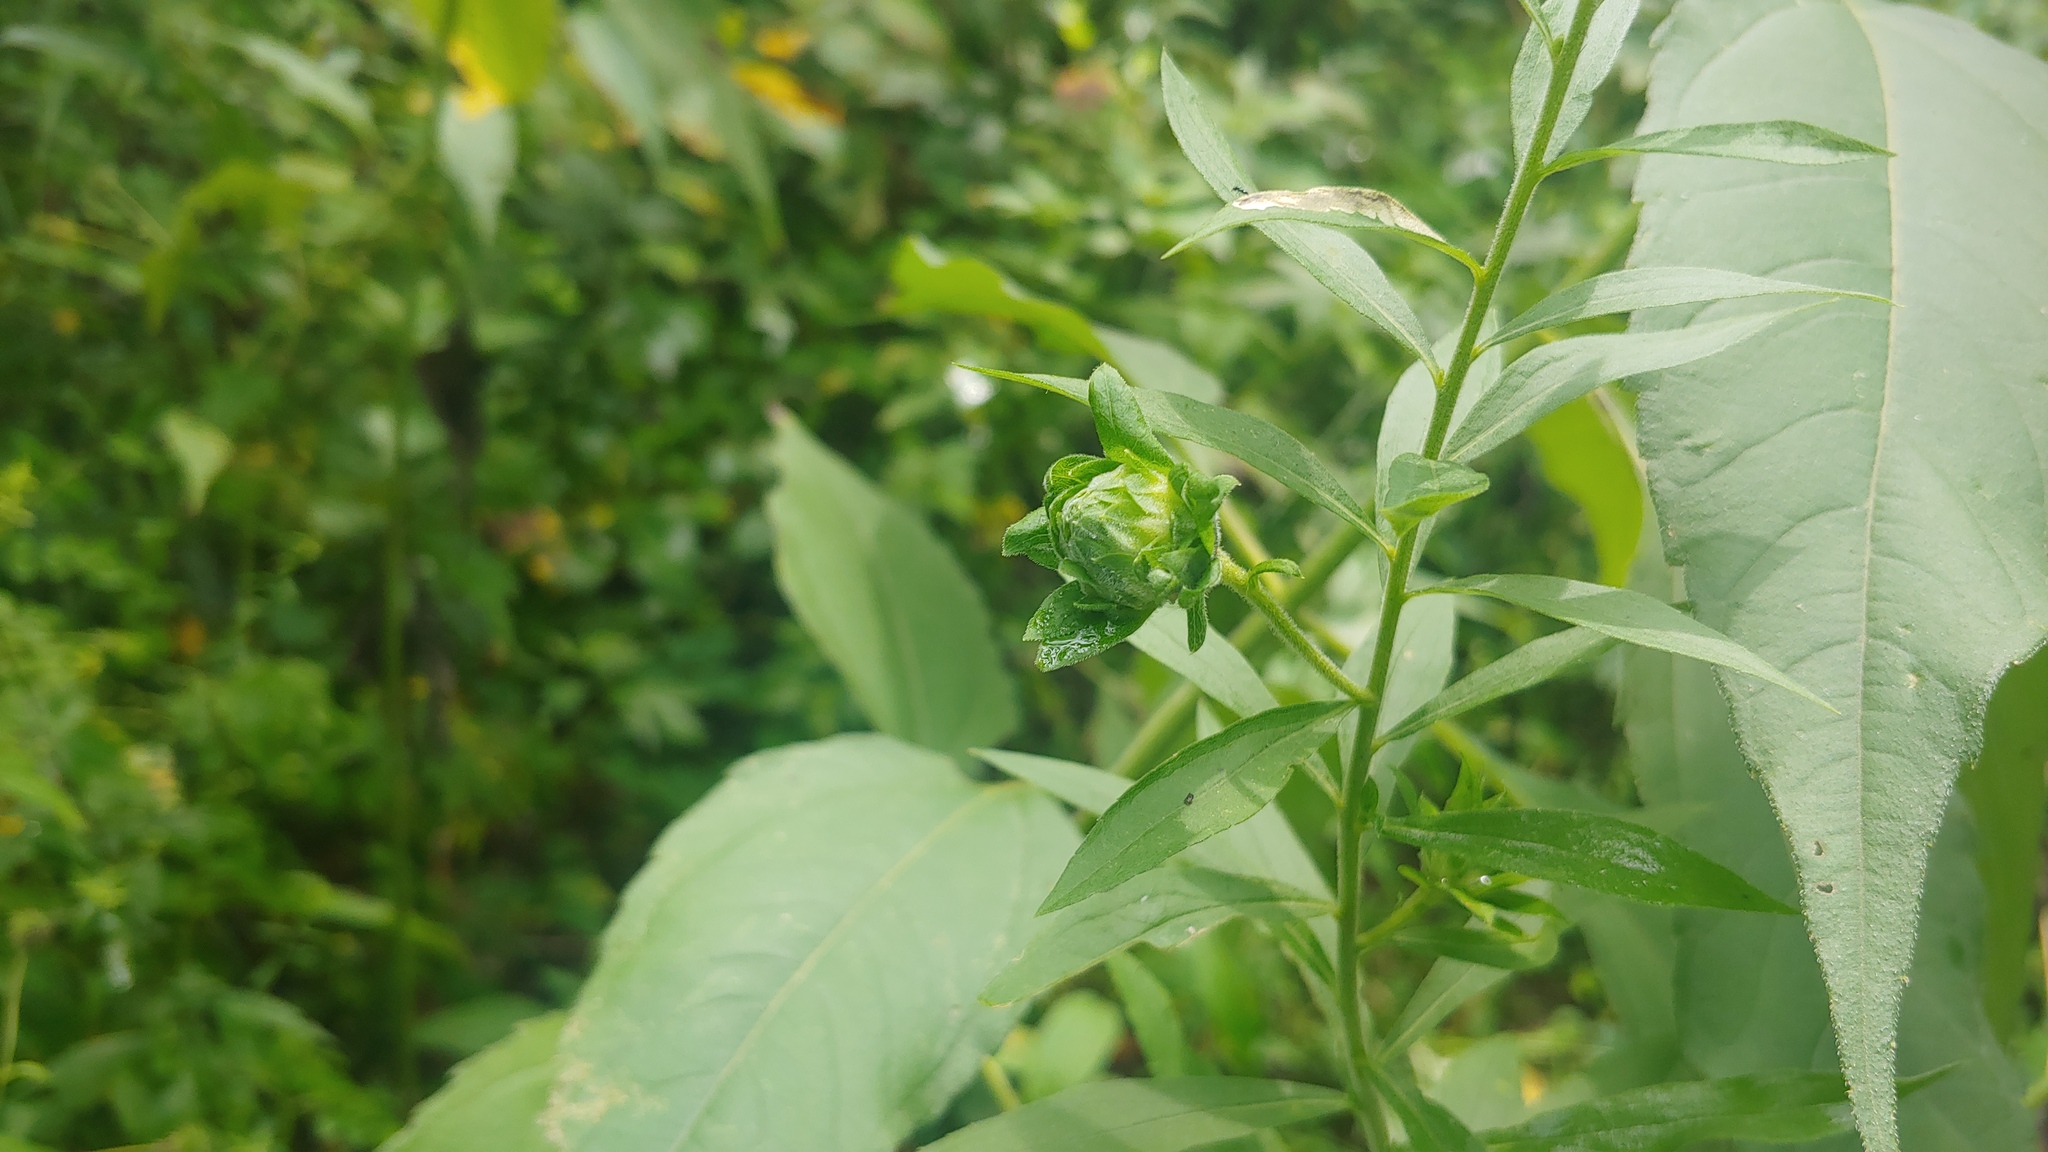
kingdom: Animalia
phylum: Arthropoda
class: Insecta
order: Diptera
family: Tephritidae
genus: Procecidochares
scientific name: Procecidochares atra
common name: Goldenrod brussels sprout gall fly
